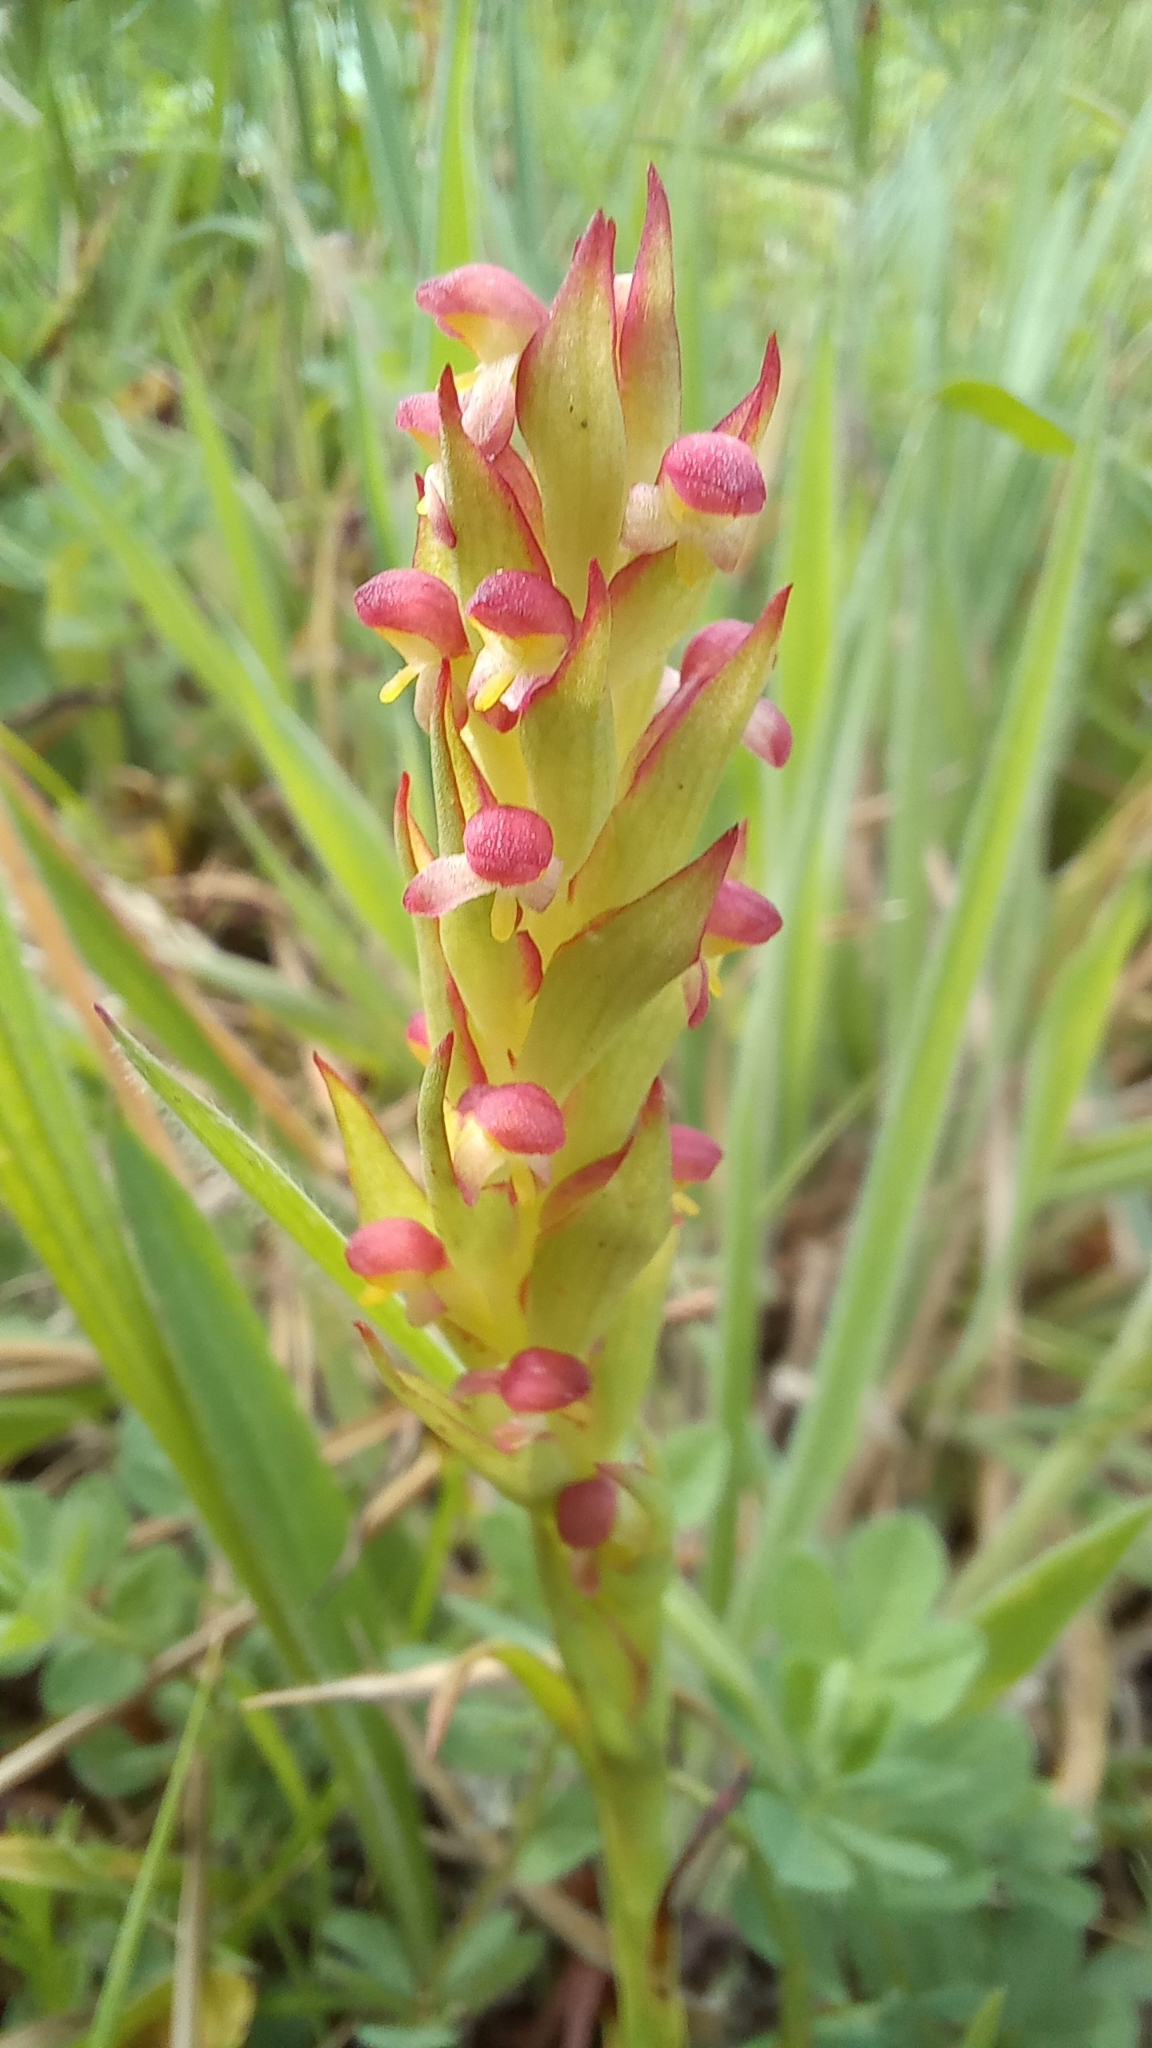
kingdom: Plantae
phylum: Tracheophyta
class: Liliopsida
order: Asparagales
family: Orchidaceae
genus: Disa
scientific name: Disa bracteata
